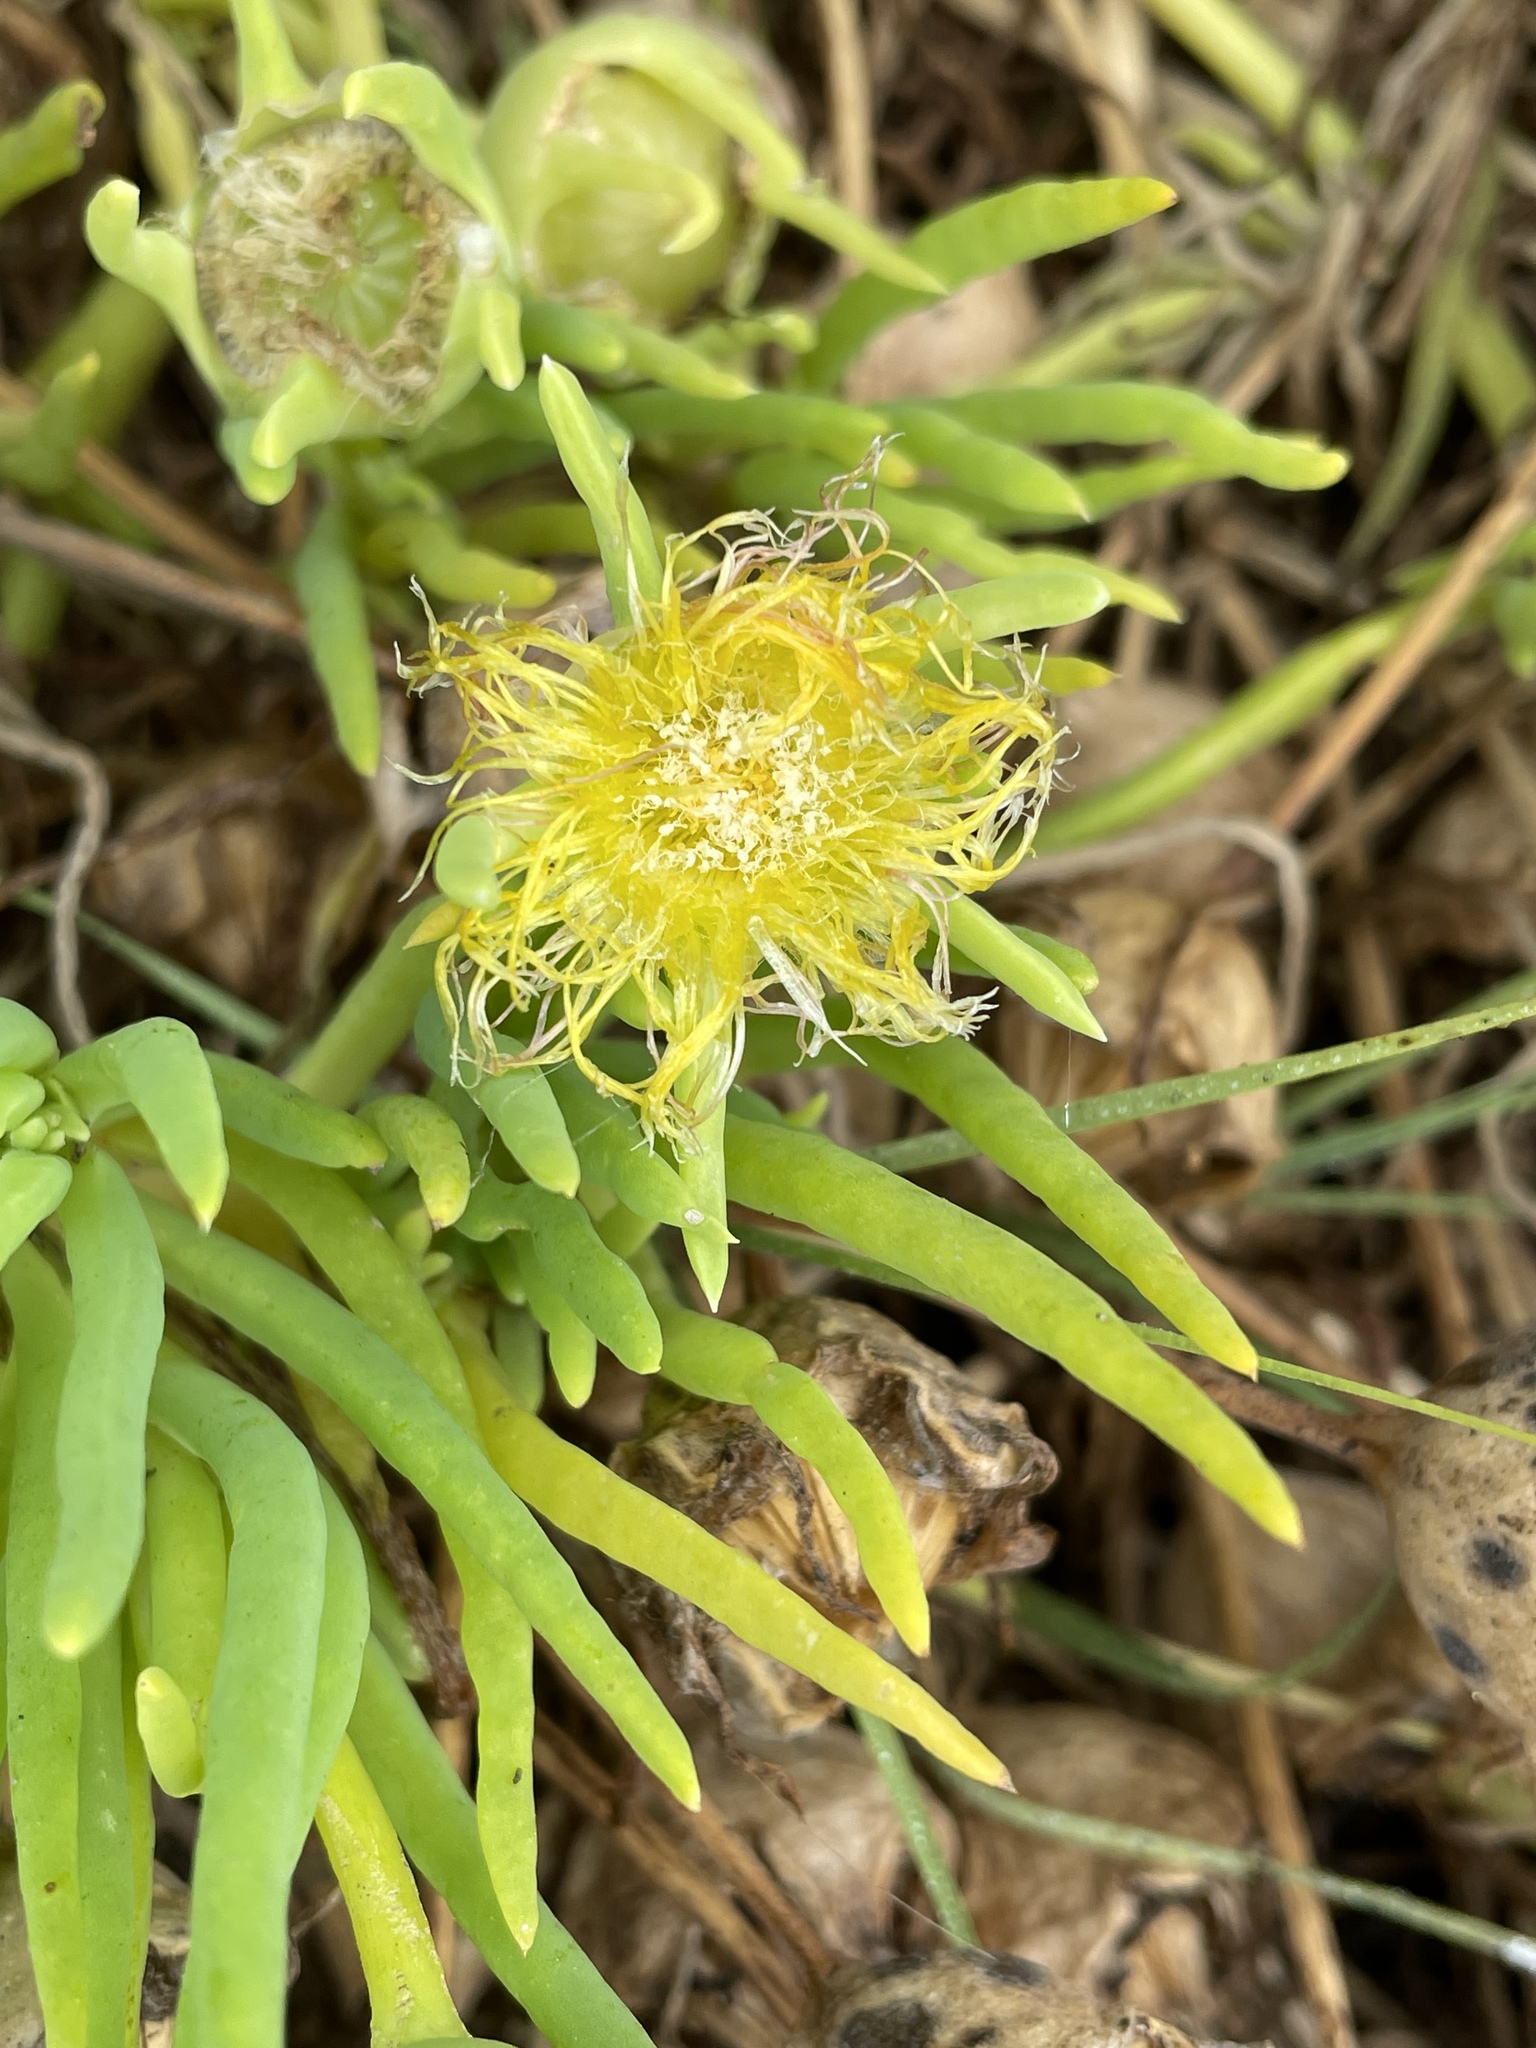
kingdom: Plantae
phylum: Tracheophyta
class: Magnoliopsida
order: Caryophyllales
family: Aizoaceae
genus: Conicosia
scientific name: Conicosia pugioniformis
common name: Narrow-leaved iceplant
